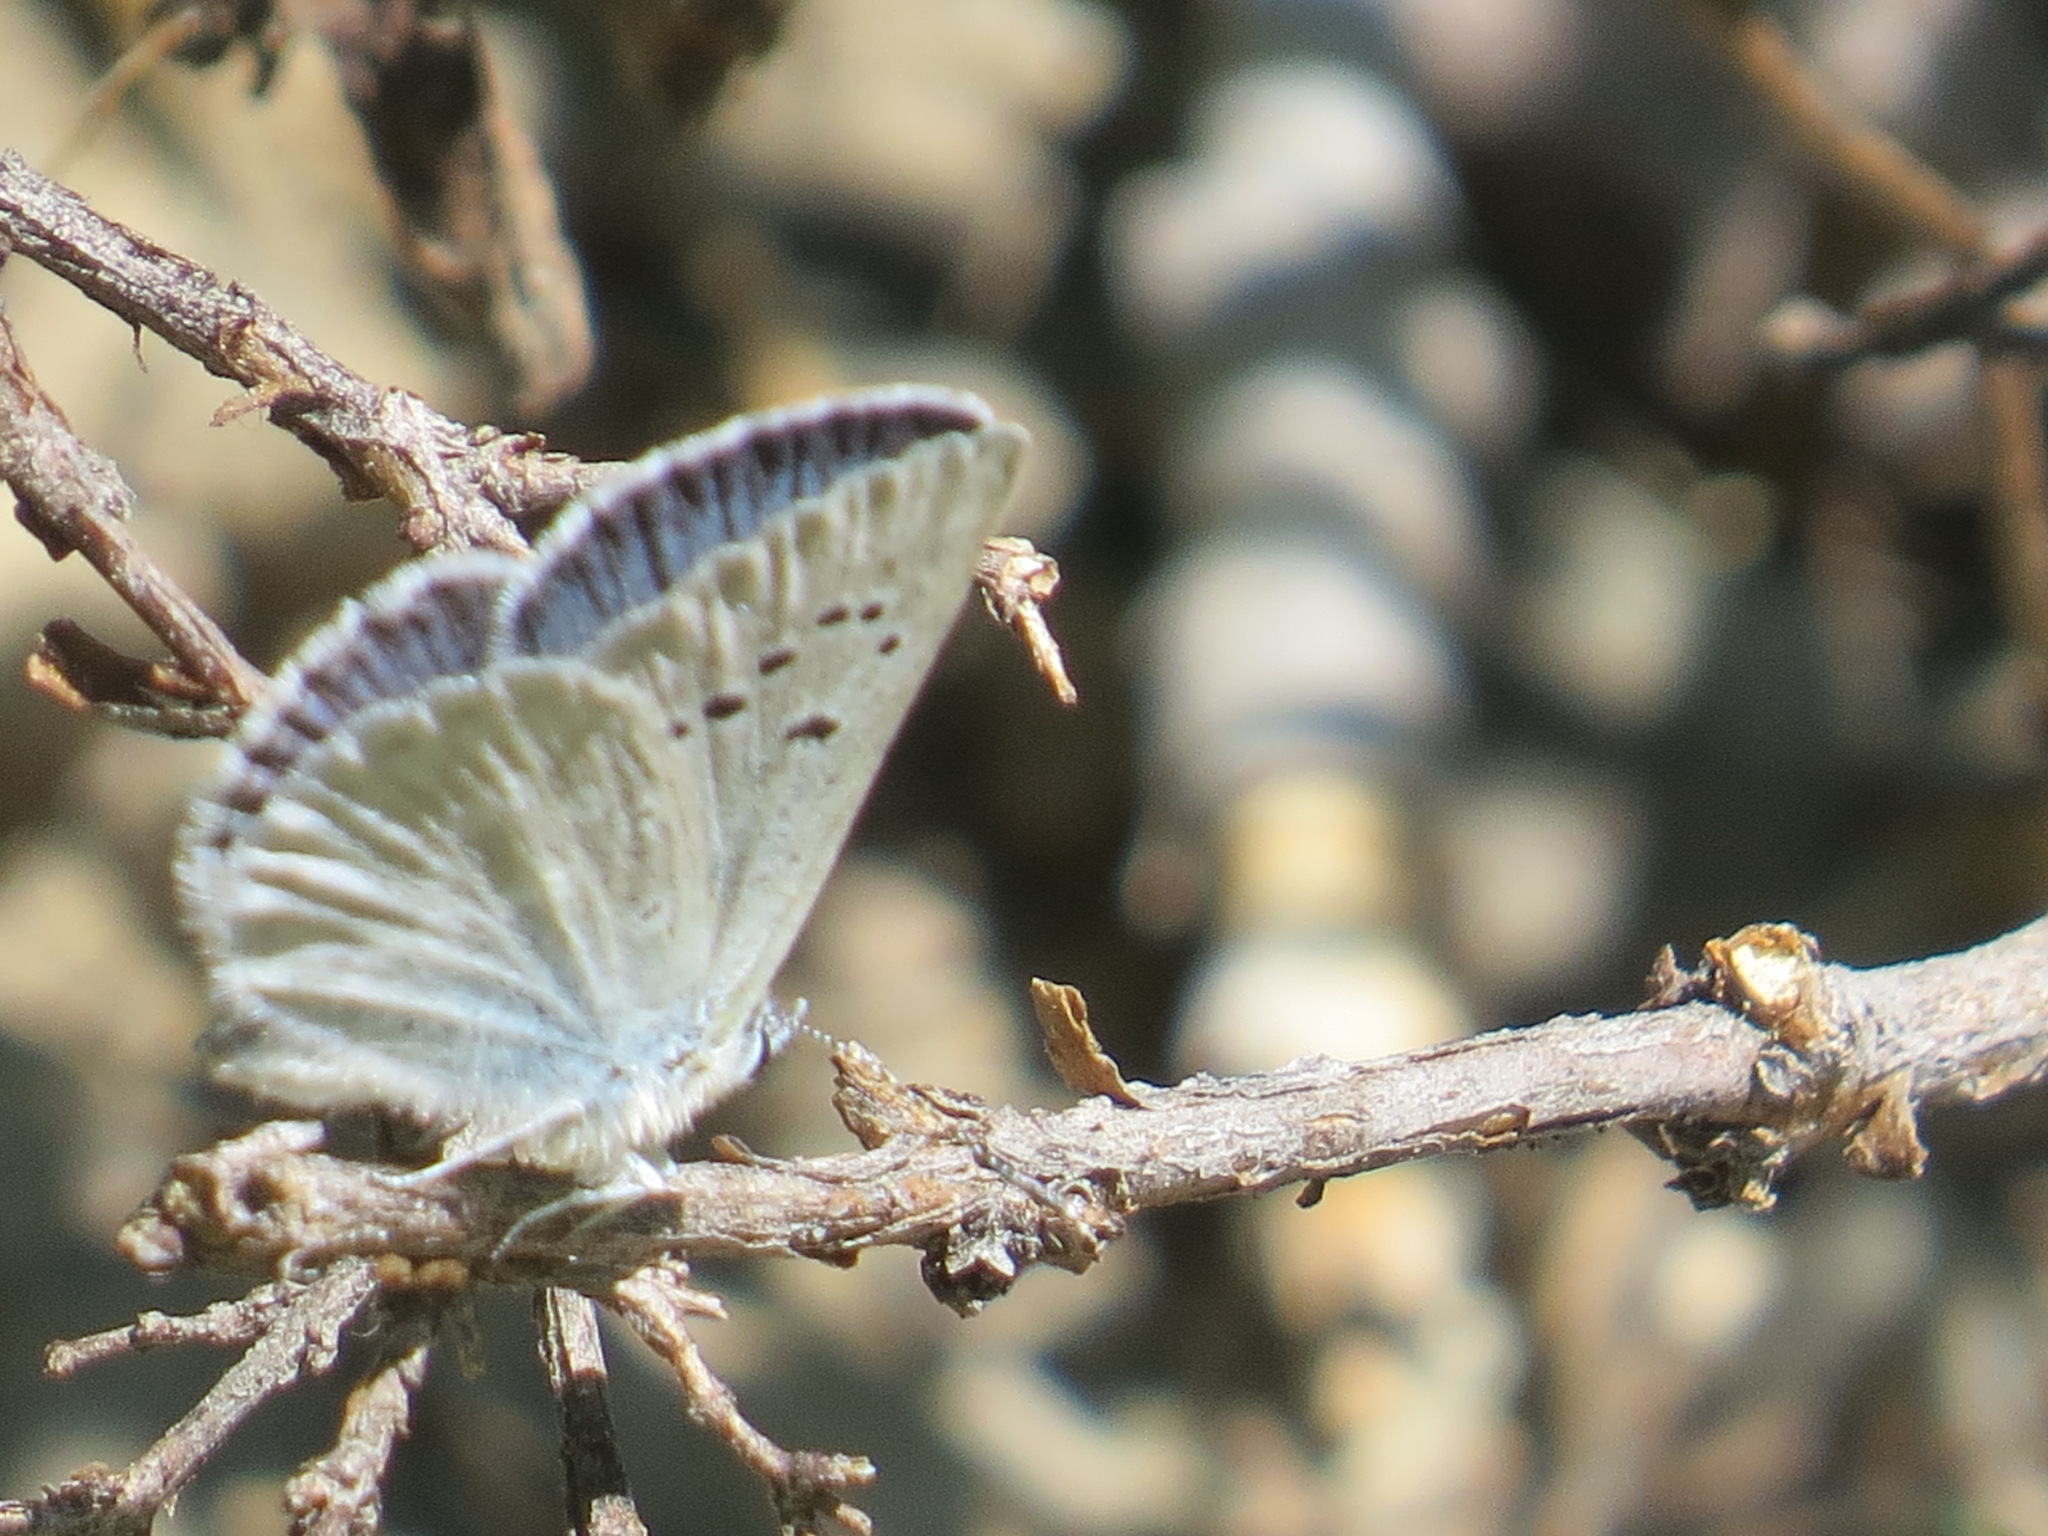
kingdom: Animalia
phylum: Arthropoda
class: Insecta
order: Lepidoptera
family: Lycaenidae
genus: Icaricia
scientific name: Icaricia icarioides
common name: Boisduval's blue
